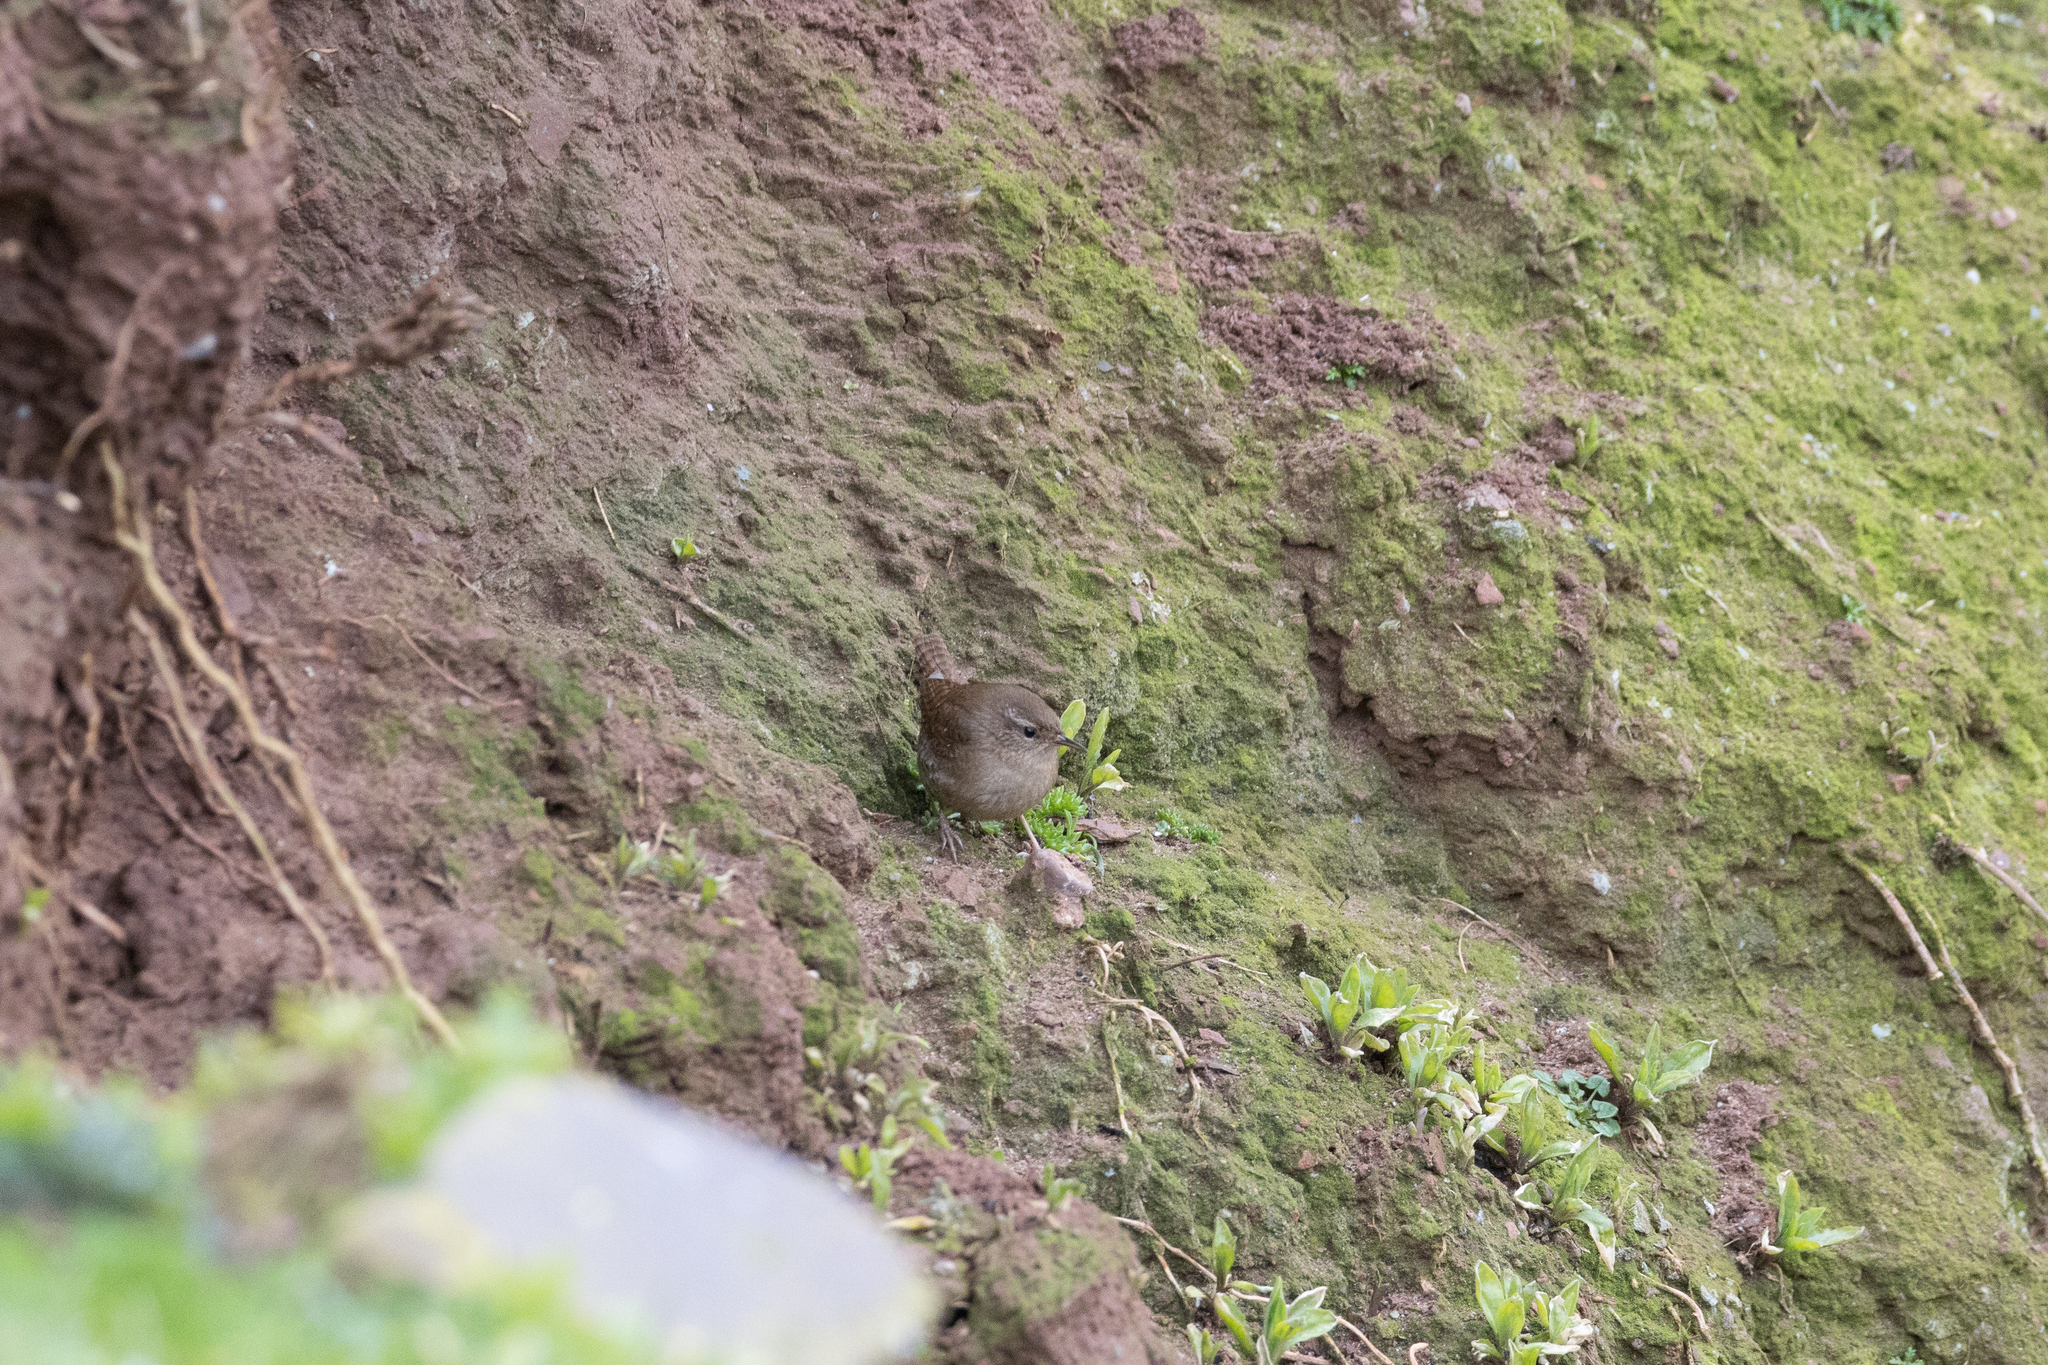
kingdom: Animalia
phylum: Chordata
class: Aves
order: Passeriformes
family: Troglodytidae
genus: Troglodytes
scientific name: Troglodytes troglodytes
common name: Eurasian wren
